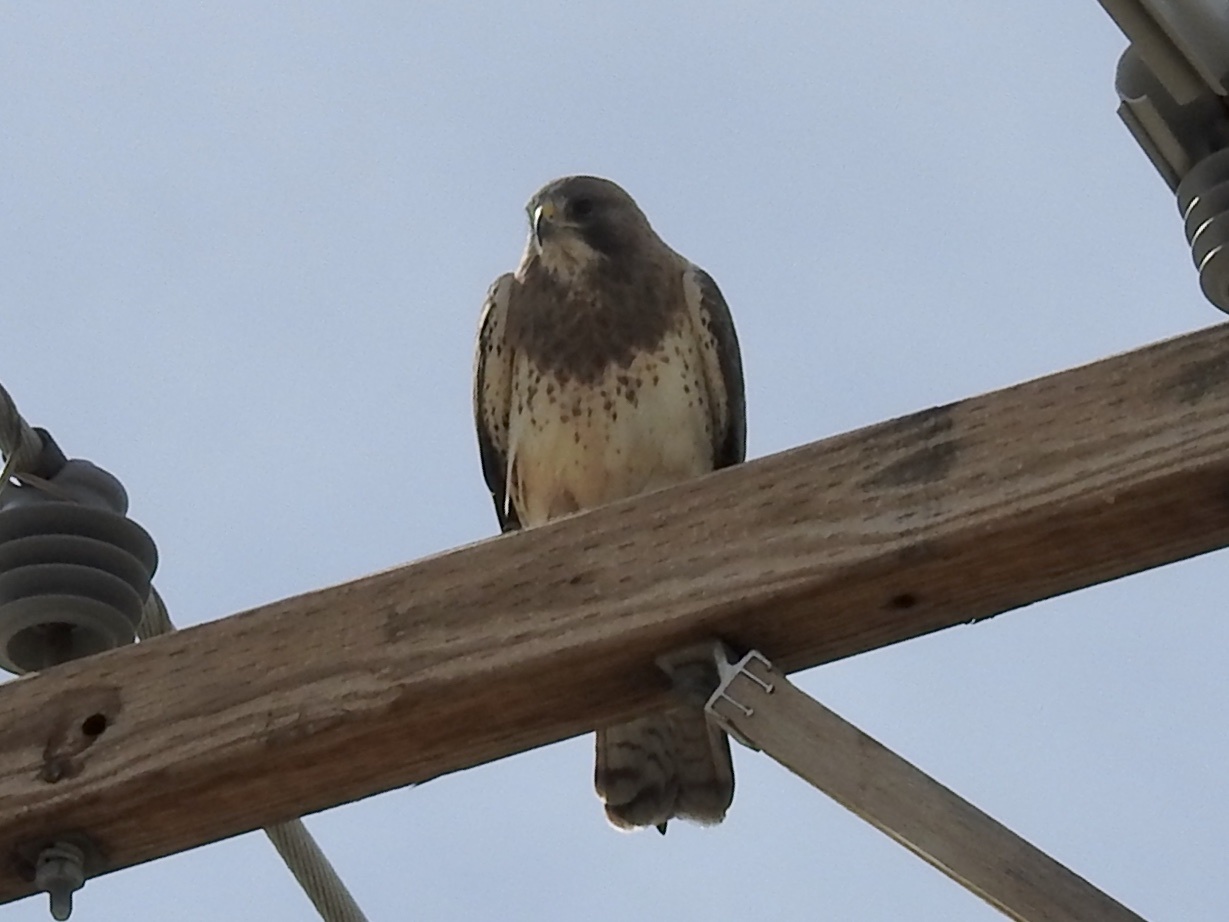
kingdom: Animalia
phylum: Chordata
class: Aves
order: Accipitriformes
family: Accipitridae
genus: Buteo
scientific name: Buteo swainsoni
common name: Swainson's hawk
